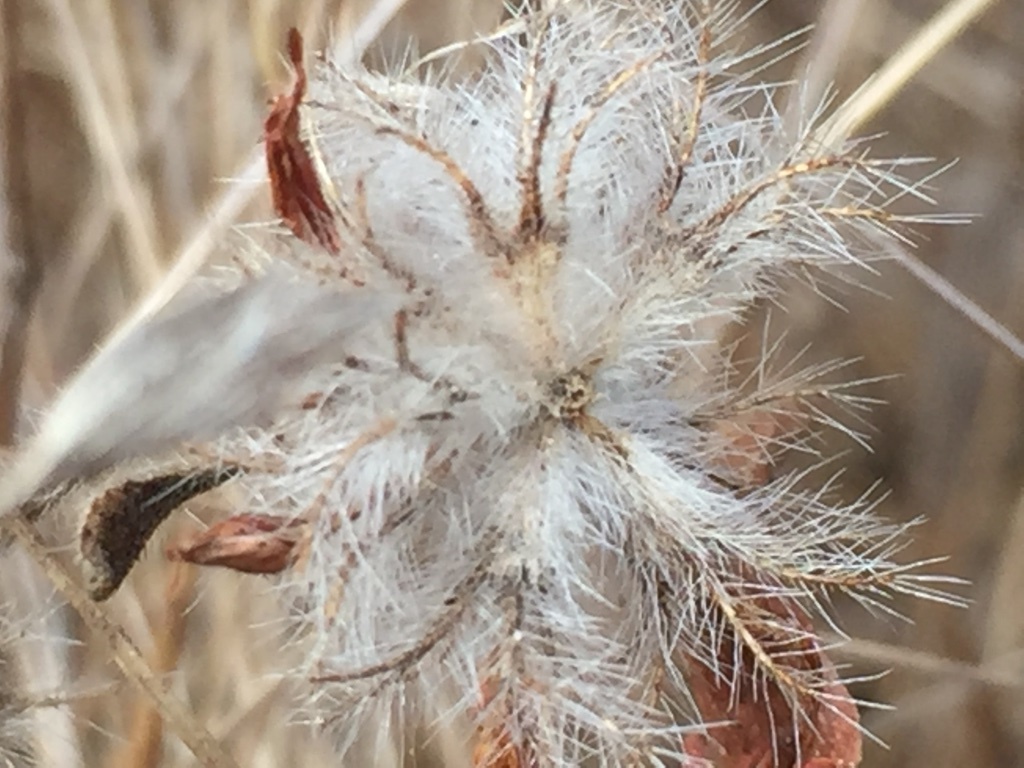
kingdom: Plantae
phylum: Tracheophyta
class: Magnoliopsida
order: Fabales
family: Fabaceae
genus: Trifolium
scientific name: Trifolium hirtum
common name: Rose clover
